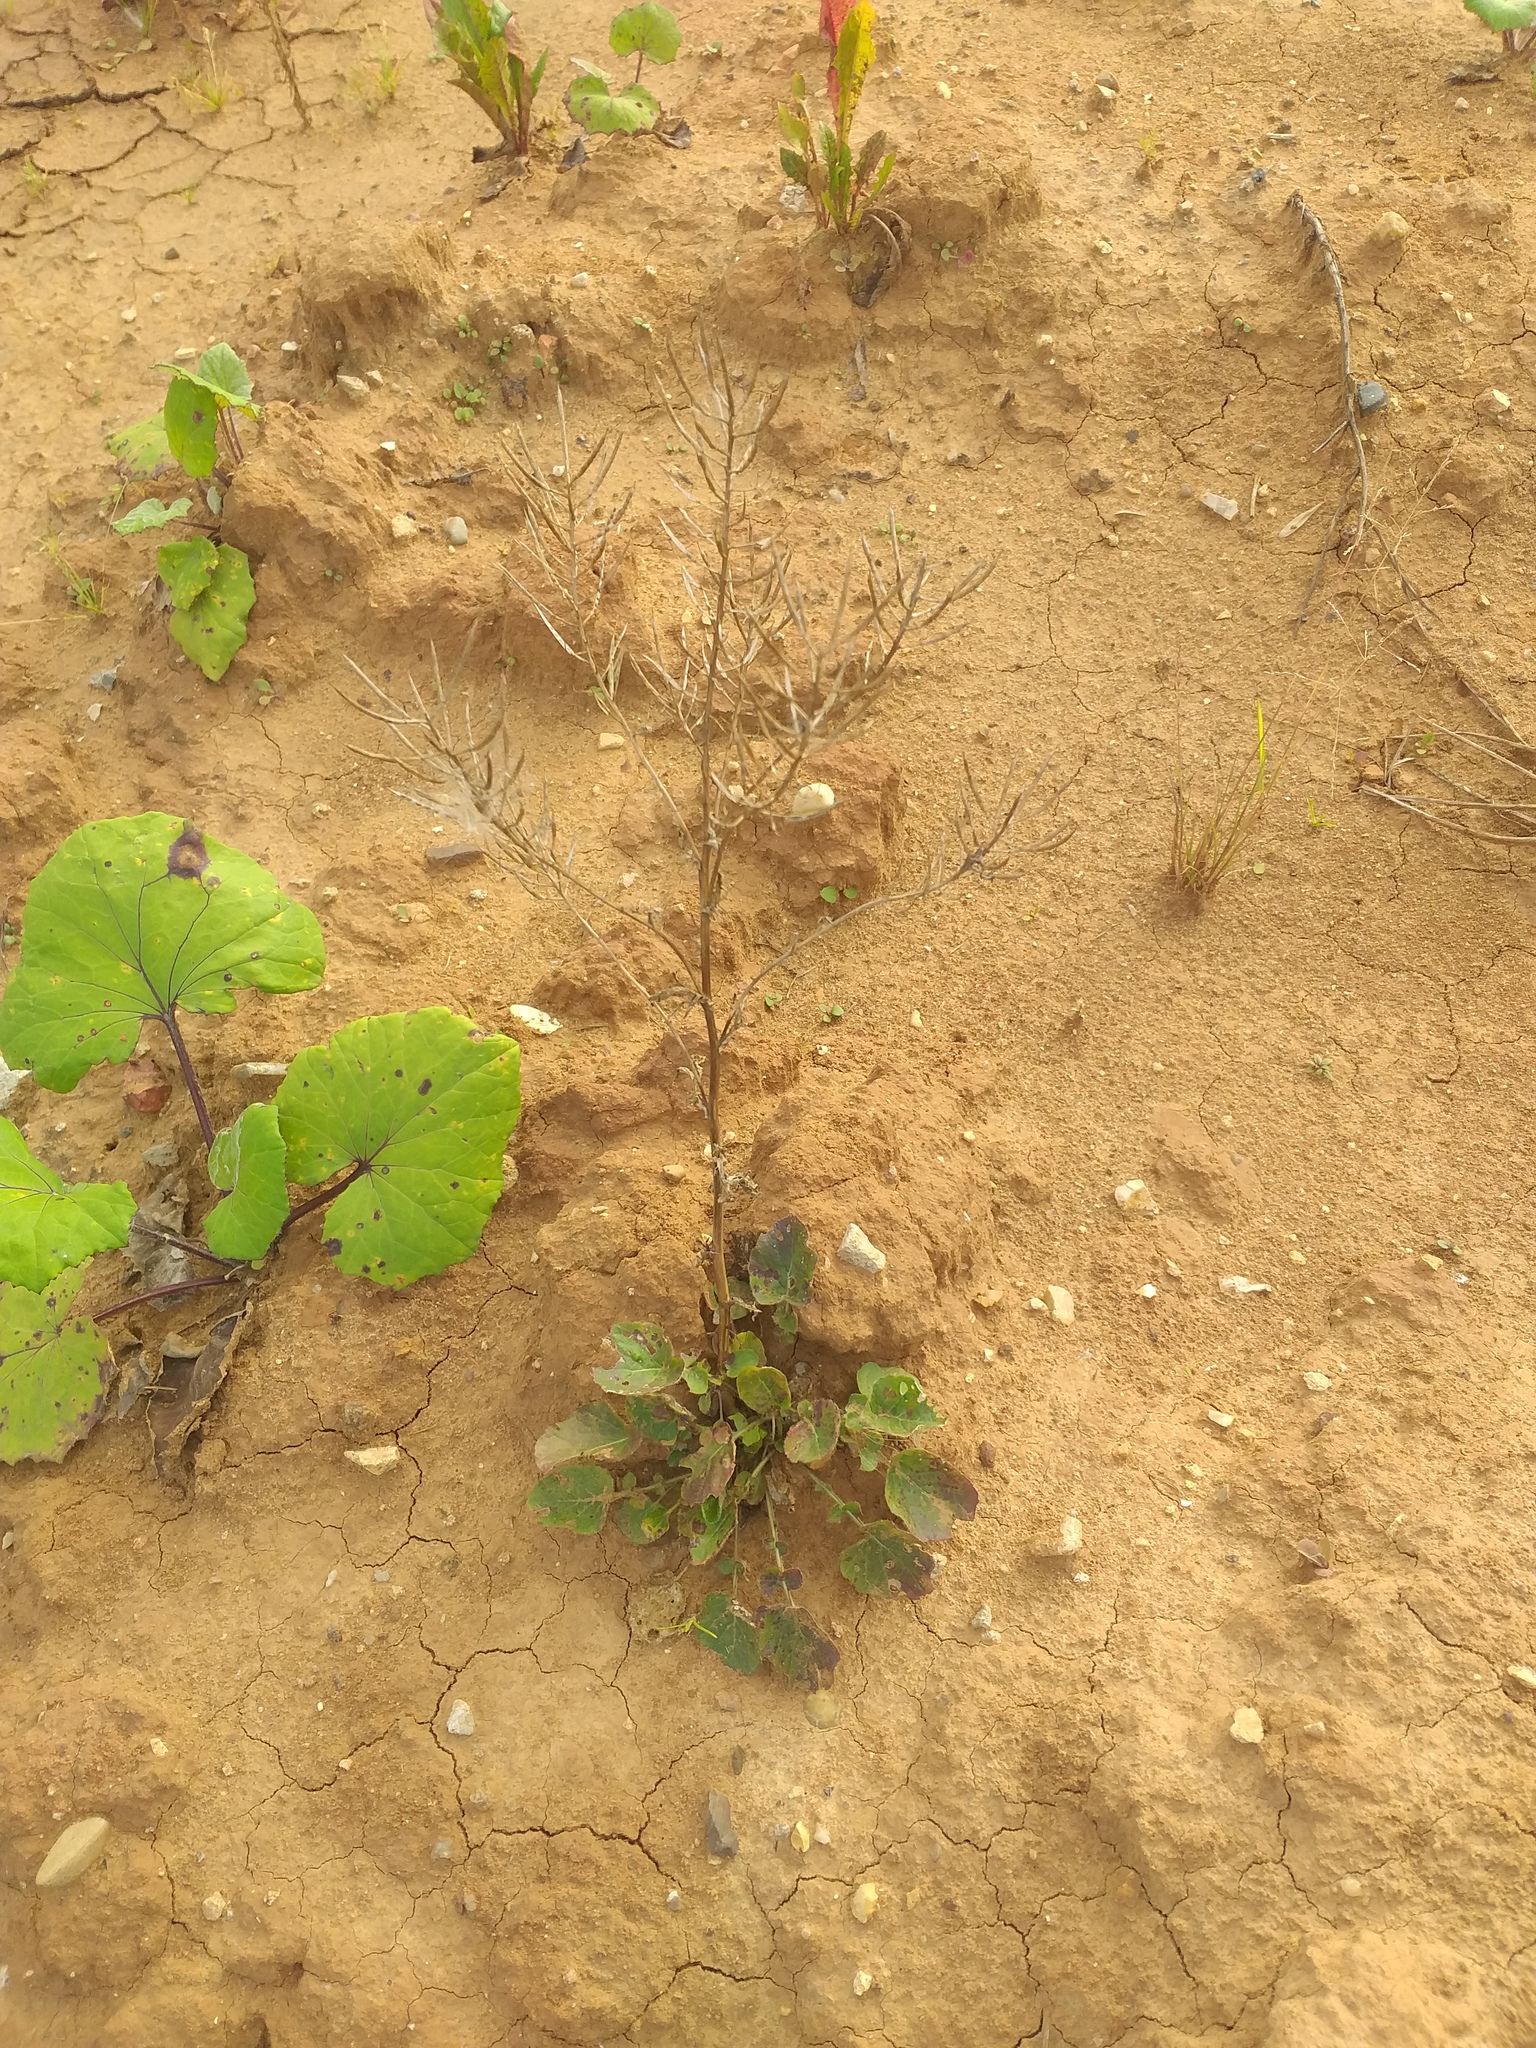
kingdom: Plantae
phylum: Tracheophyta
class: Magnoliopsida
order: Brassicales
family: Brassicaceae
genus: Barbarea
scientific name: Barbarea vulgaris
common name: Cressy-greens
